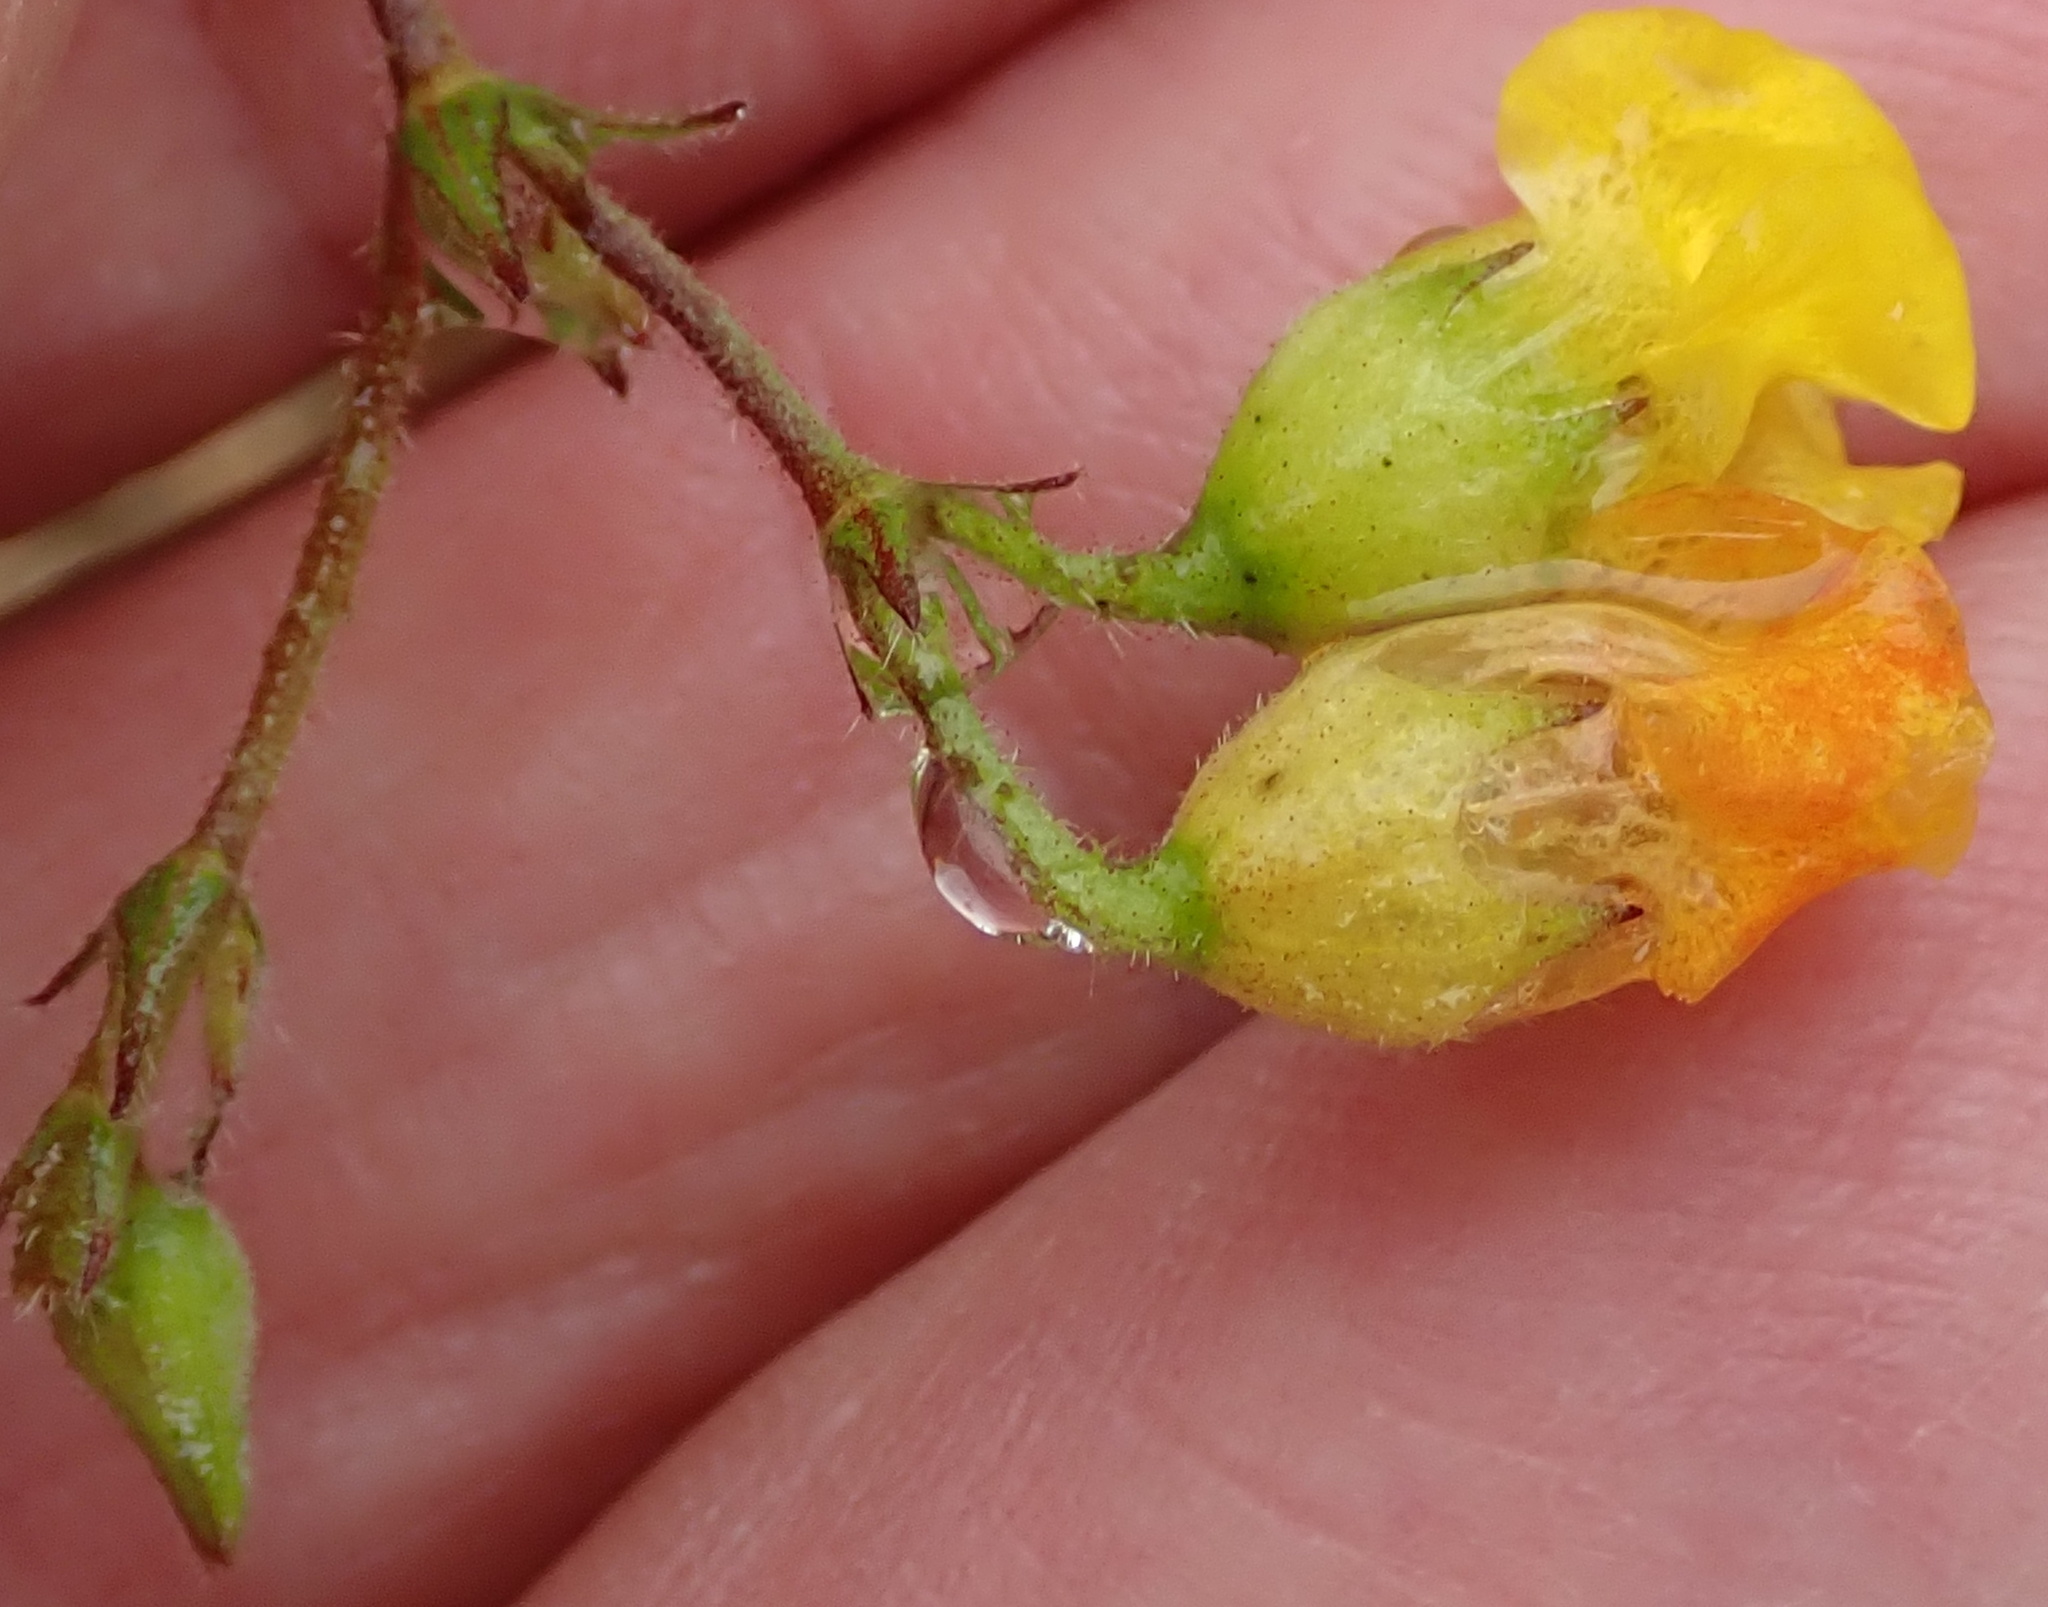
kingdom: Plantae
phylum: Tracheophyta
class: Magnoliopsida
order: Malvales
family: Malvaceae
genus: Hermannia
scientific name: Hermannia althaeifolia
